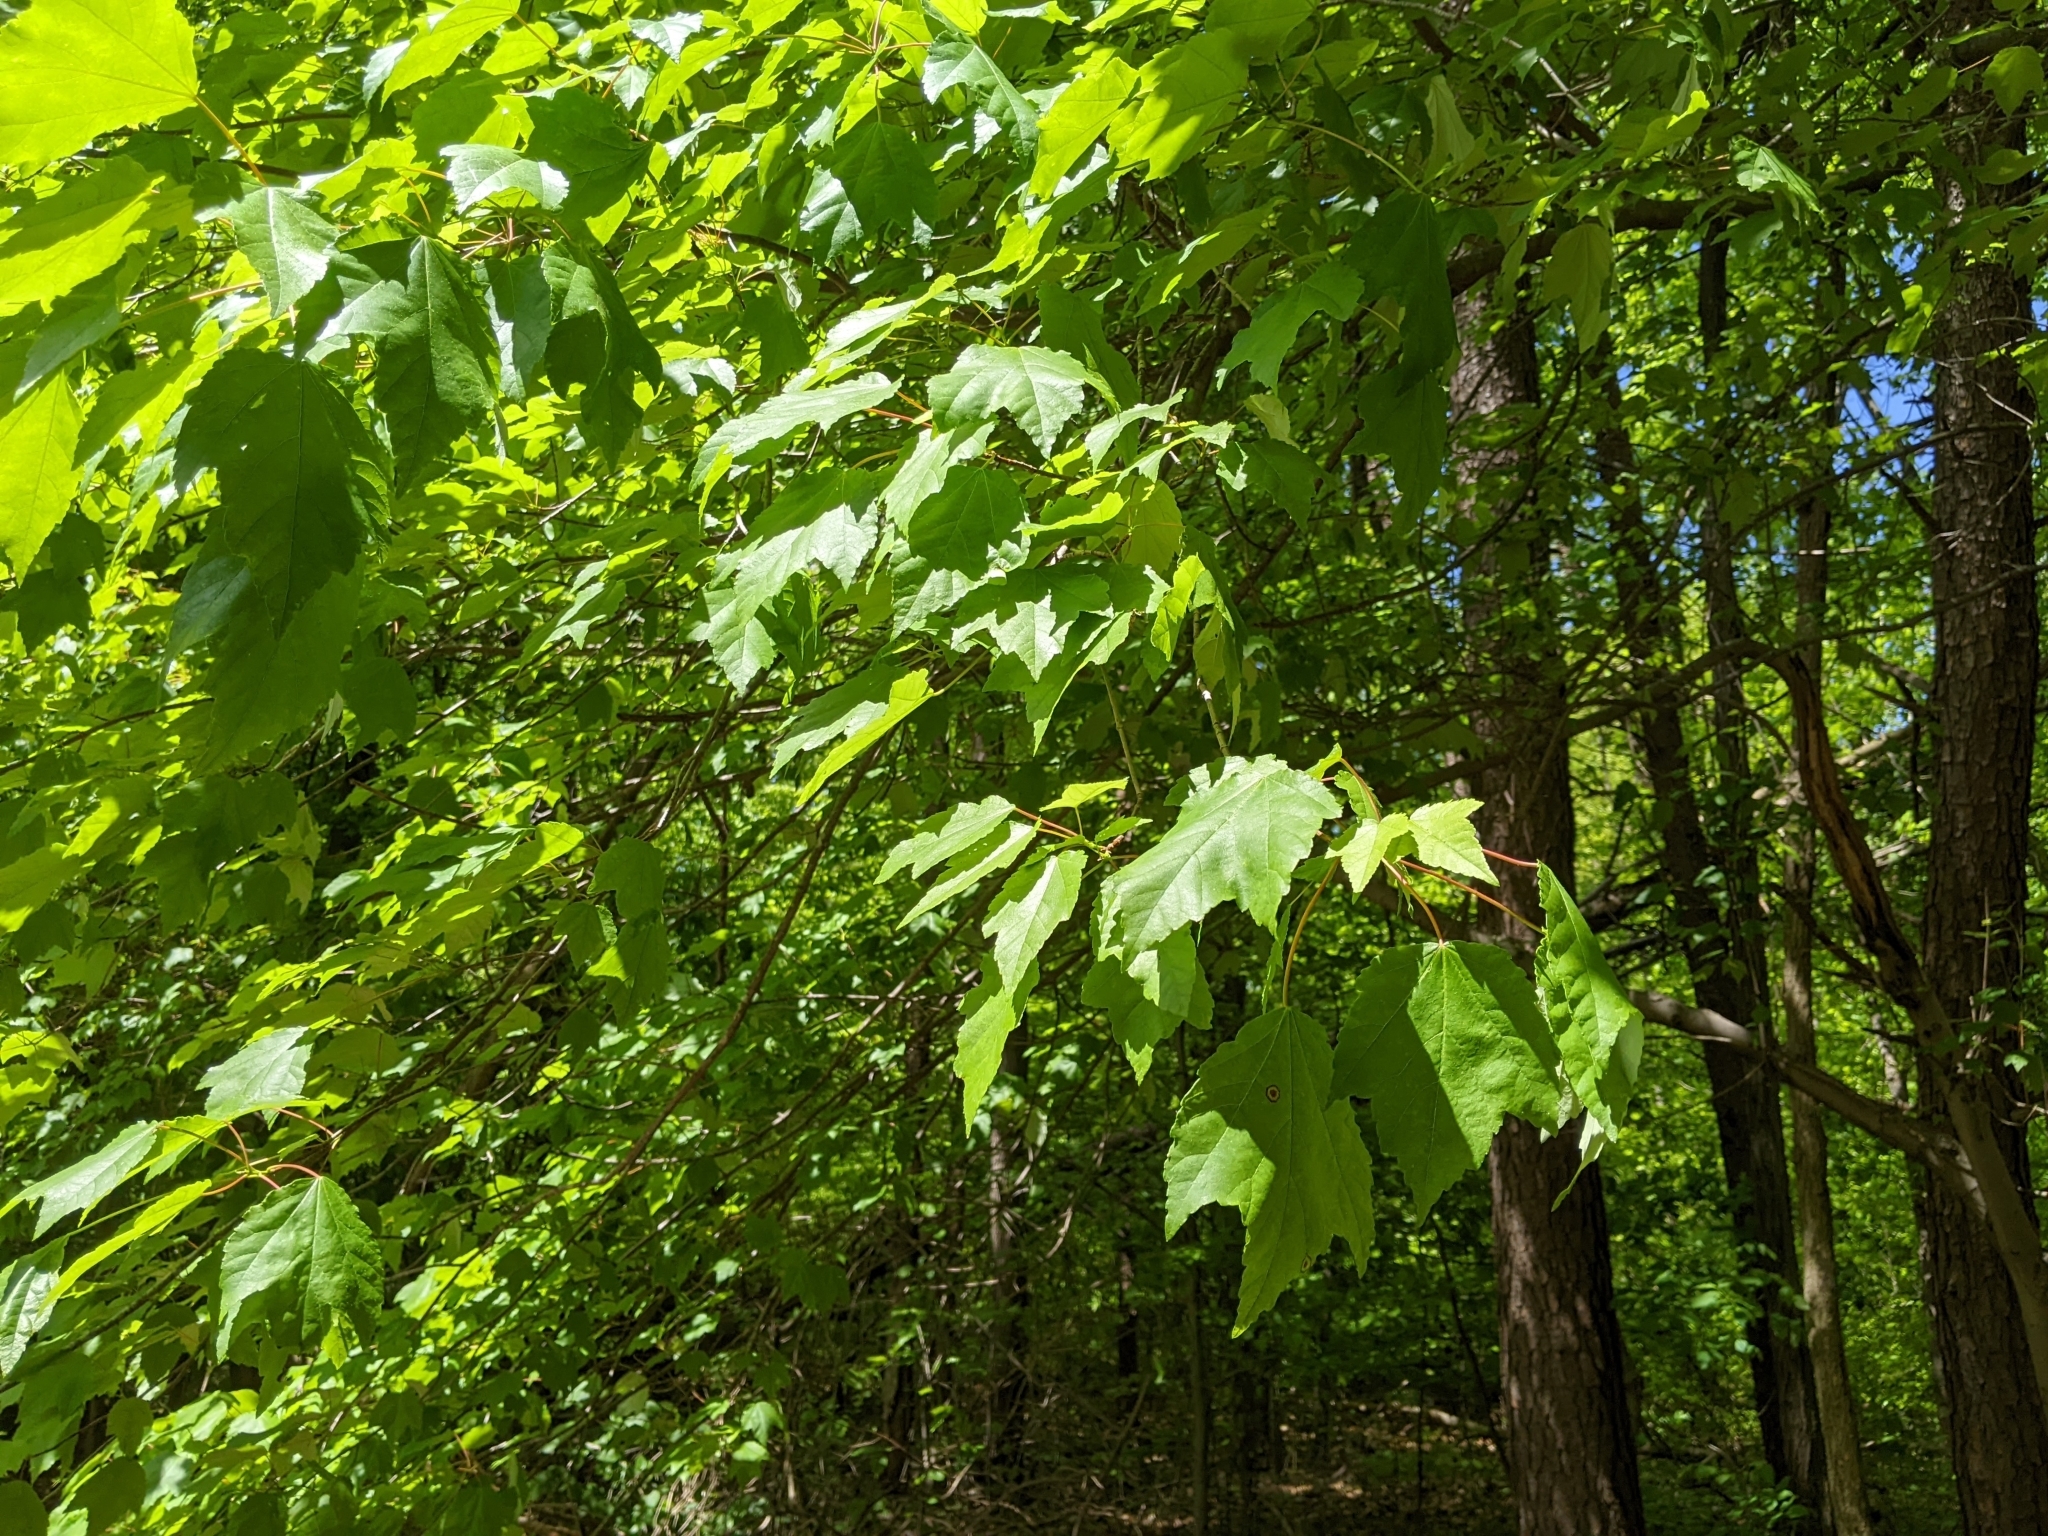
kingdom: Animalia
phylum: Arthropoda
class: Insecta
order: Diptera
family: Cecidomyiidae
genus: Acericecis
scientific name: Acericecis ocellaris
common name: Ocellate gall midge
